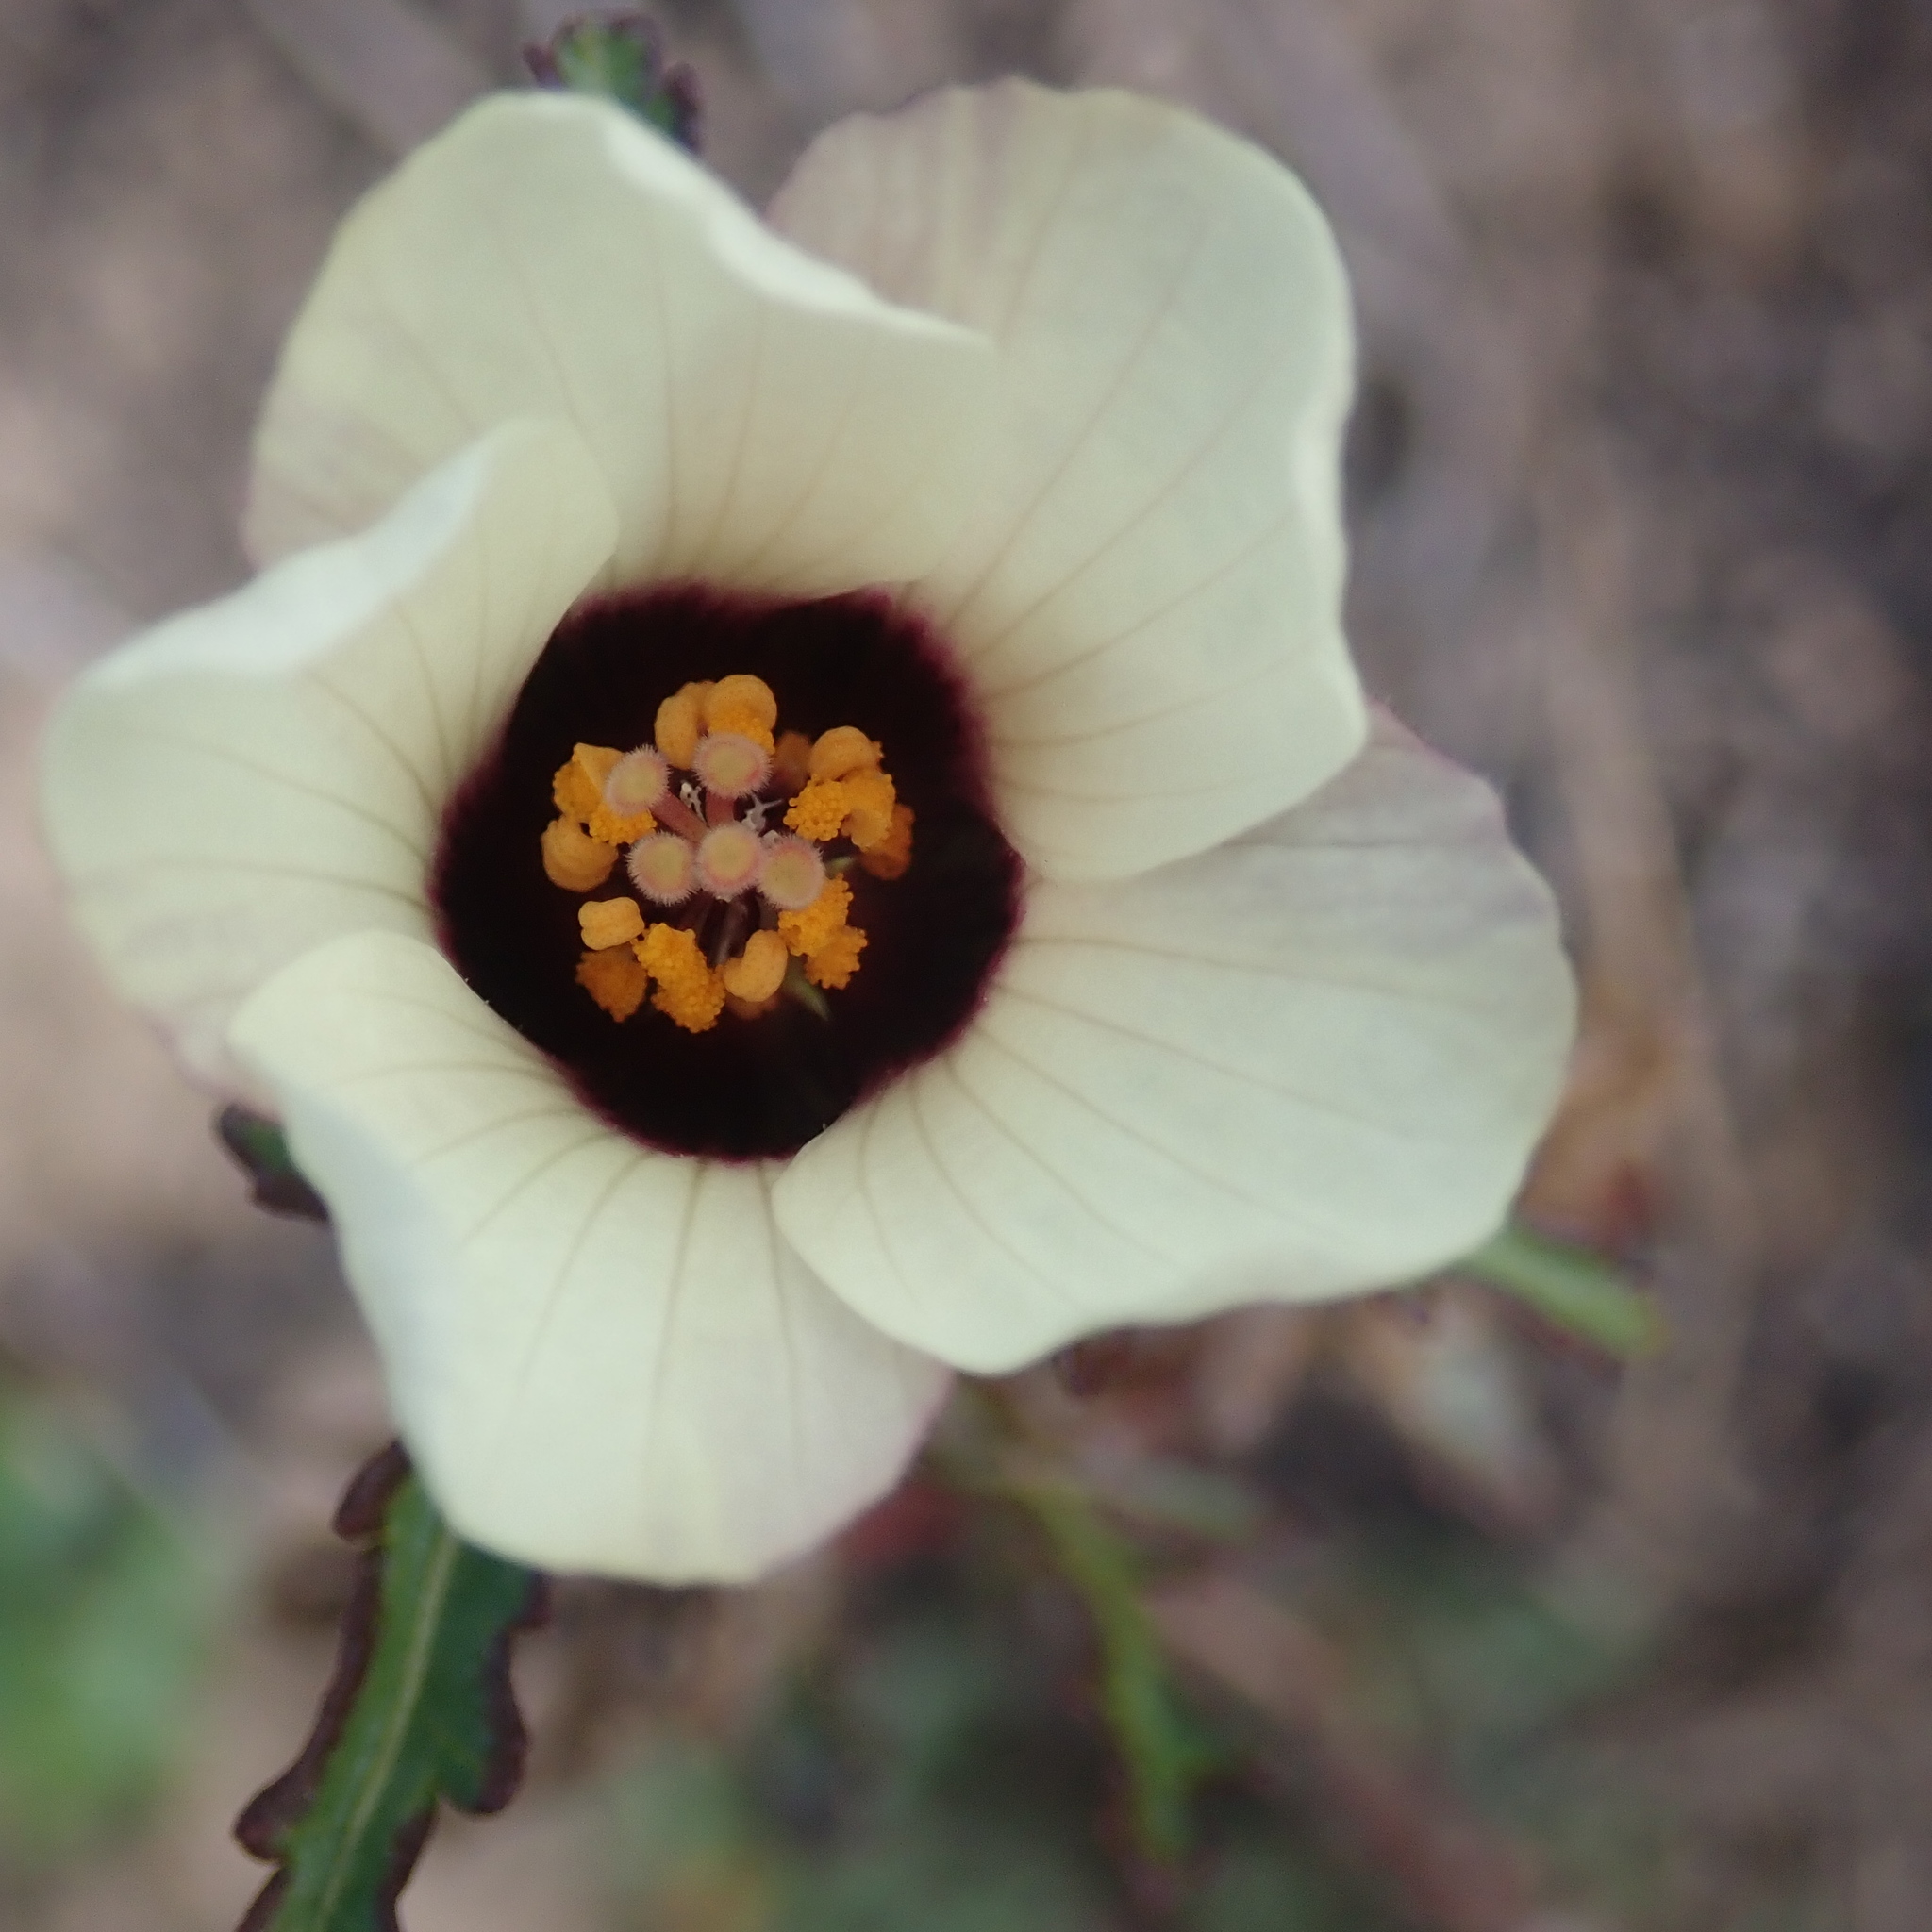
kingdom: Plantae
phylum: Tracheophyta
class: Magnoliopsida
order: Malvales
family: Malvaceae
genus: Hibiscus
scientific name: Hibiscus trionum
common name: Bladder ketmia
